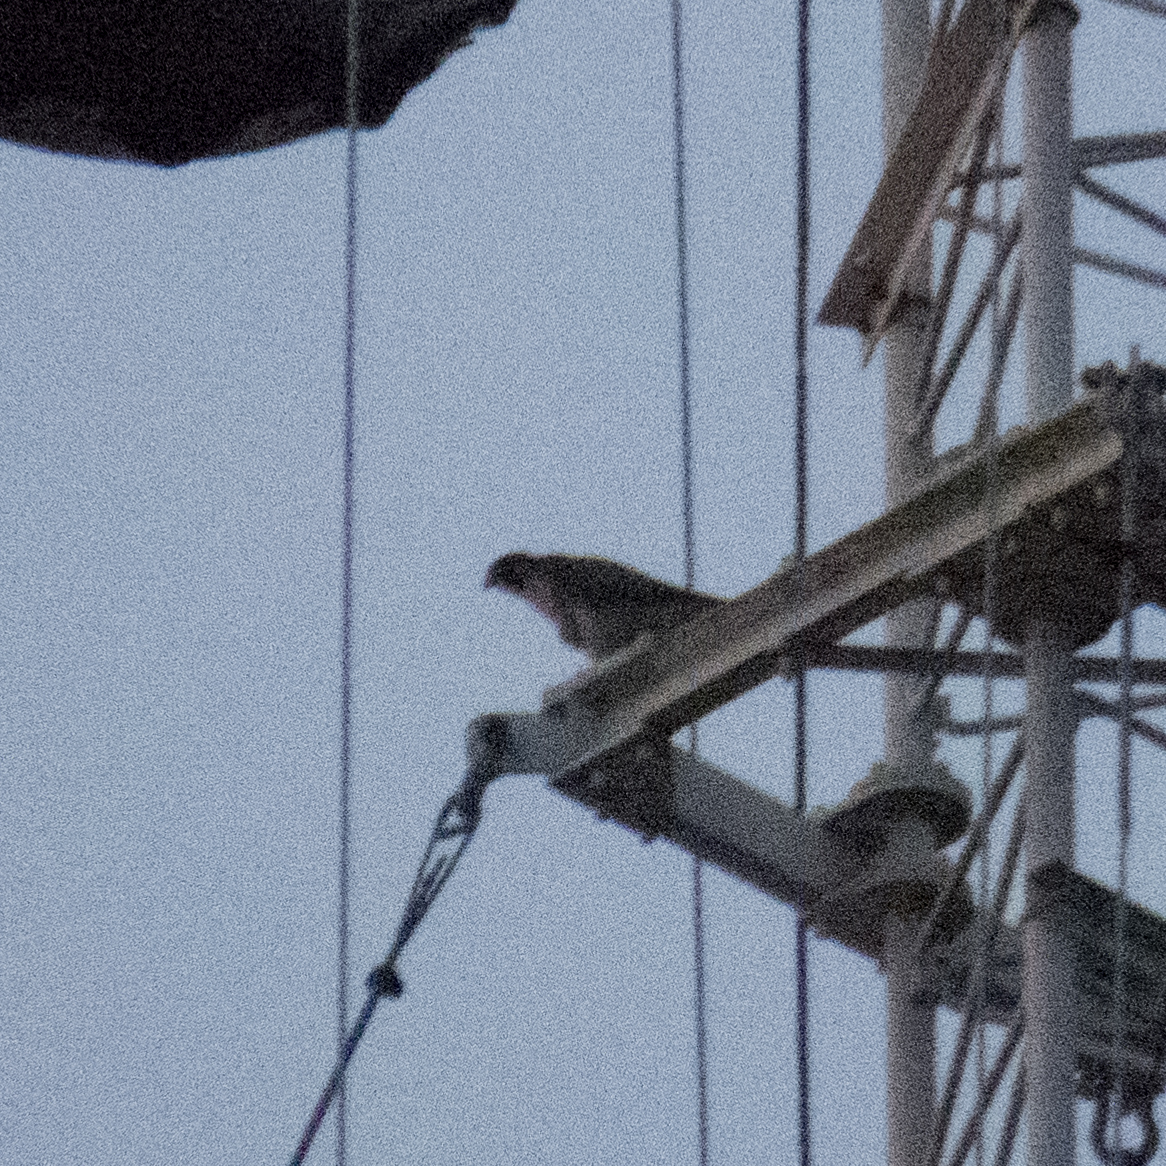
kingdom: Animalia
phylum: Chordata
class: Aves
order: Falconiformes
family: Falconidae
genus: Falco
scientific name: Falco peregrinus
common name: Peregrine falcon
